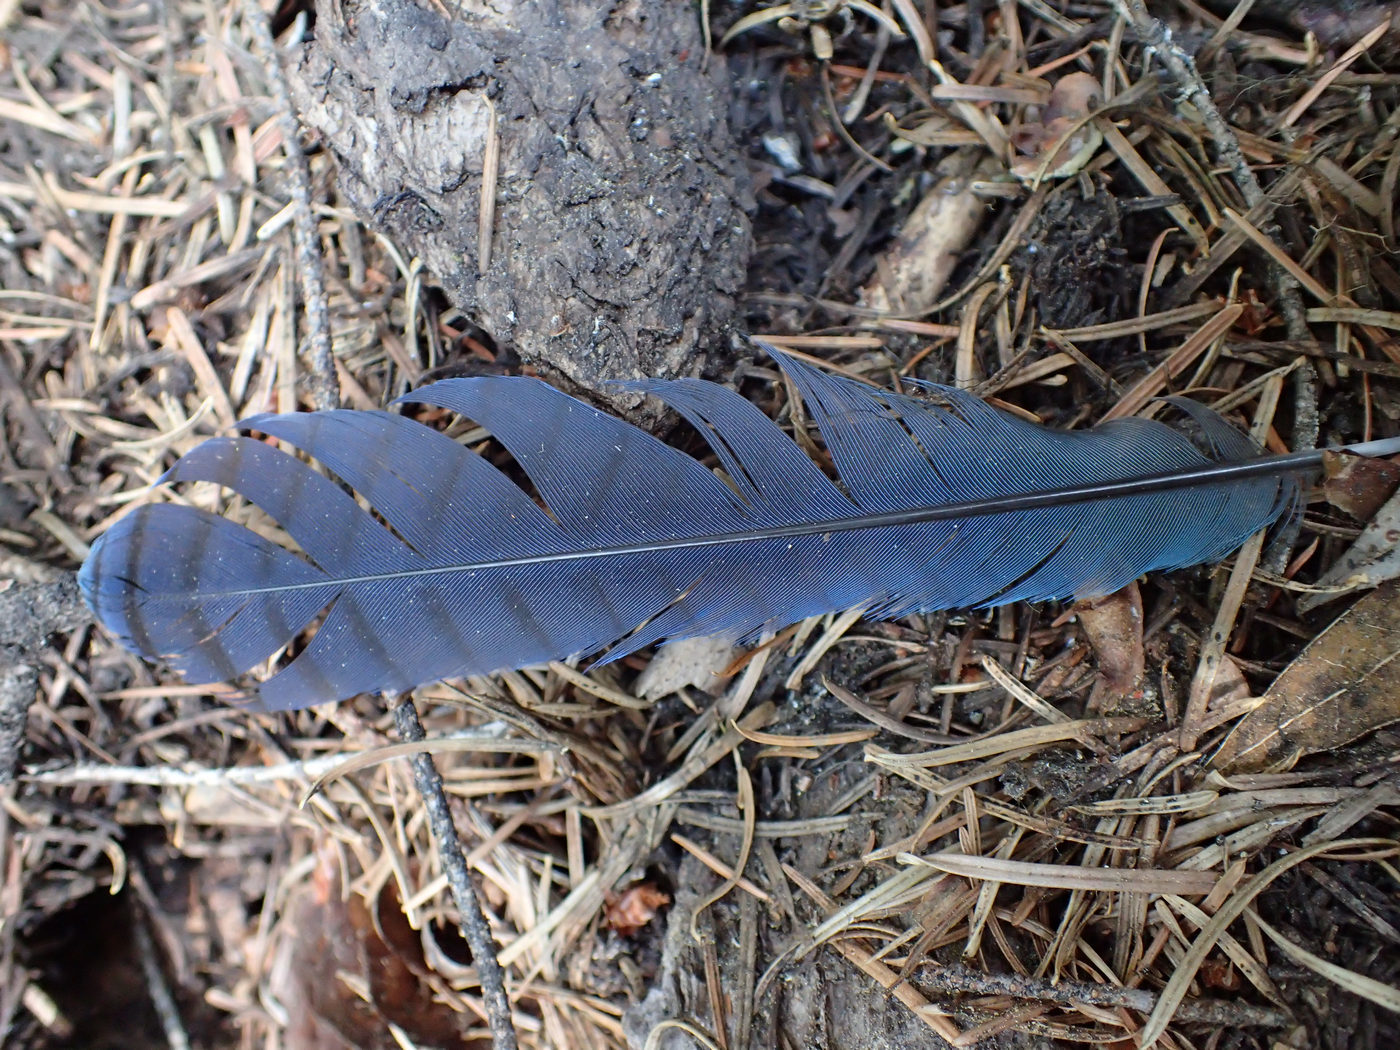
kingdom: Animalia
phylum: Chordata
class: Aves
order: Passeriformes
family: Corvidae
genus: Cyanocitta
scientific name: Cyanocitta stelleri
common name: Steller's jay
